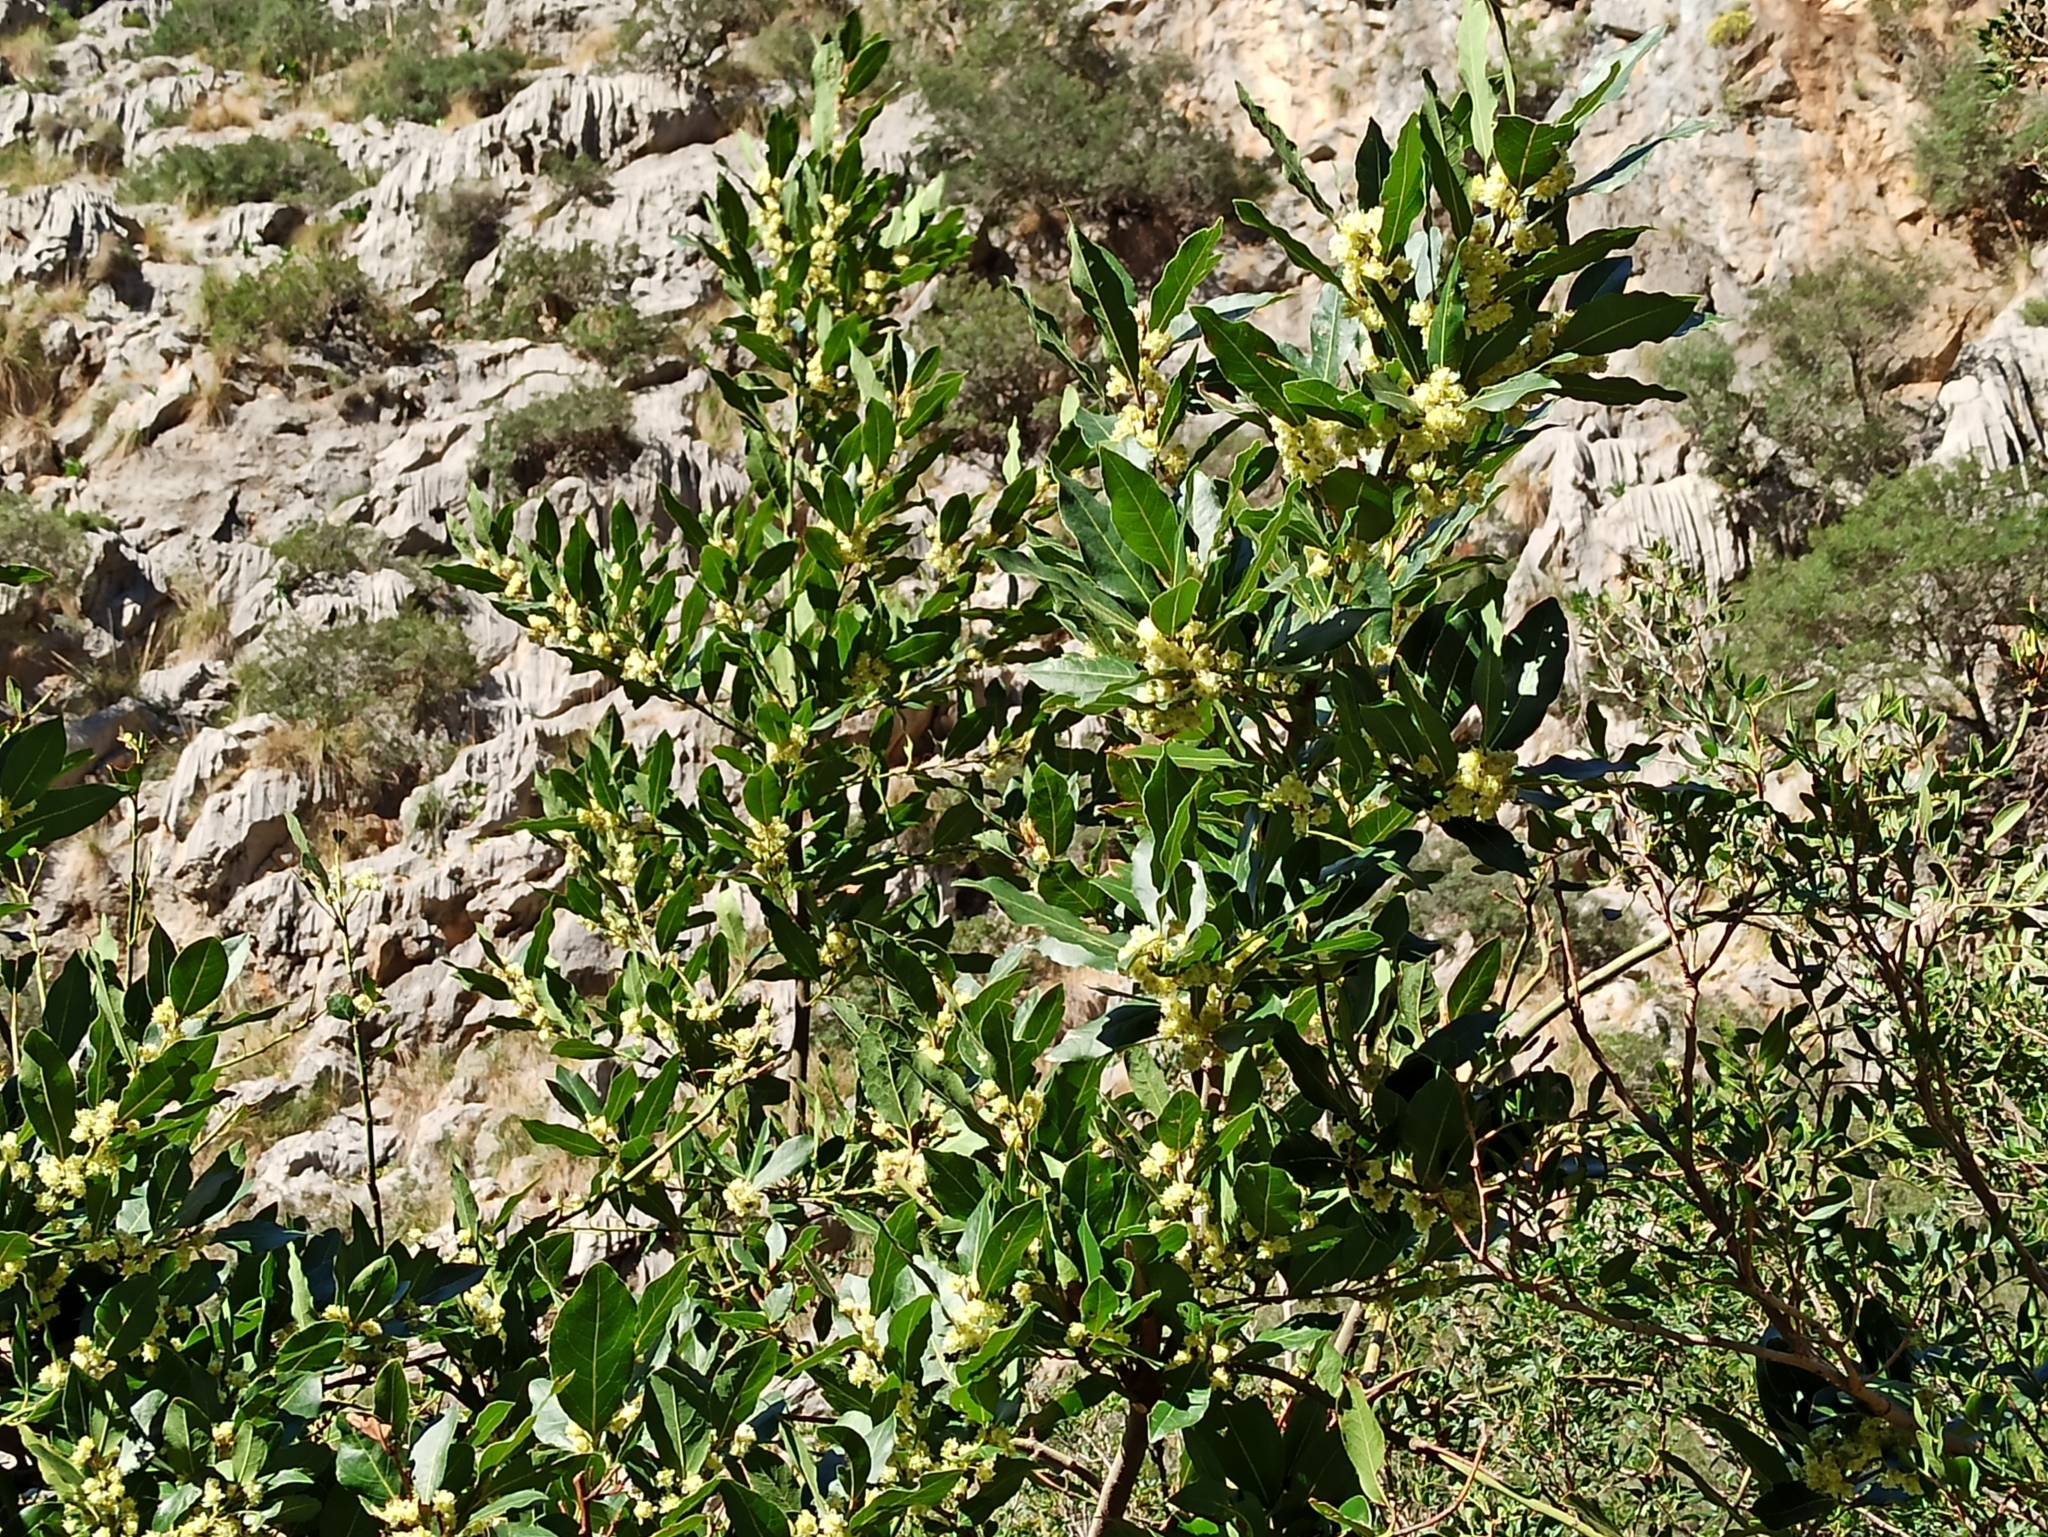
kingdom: Plantae
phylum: Tracheophyta
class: Magnoliopsida
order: Laurales
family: Lauraceae
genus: Laurus
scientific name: Laurus nobilis
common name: Bay
